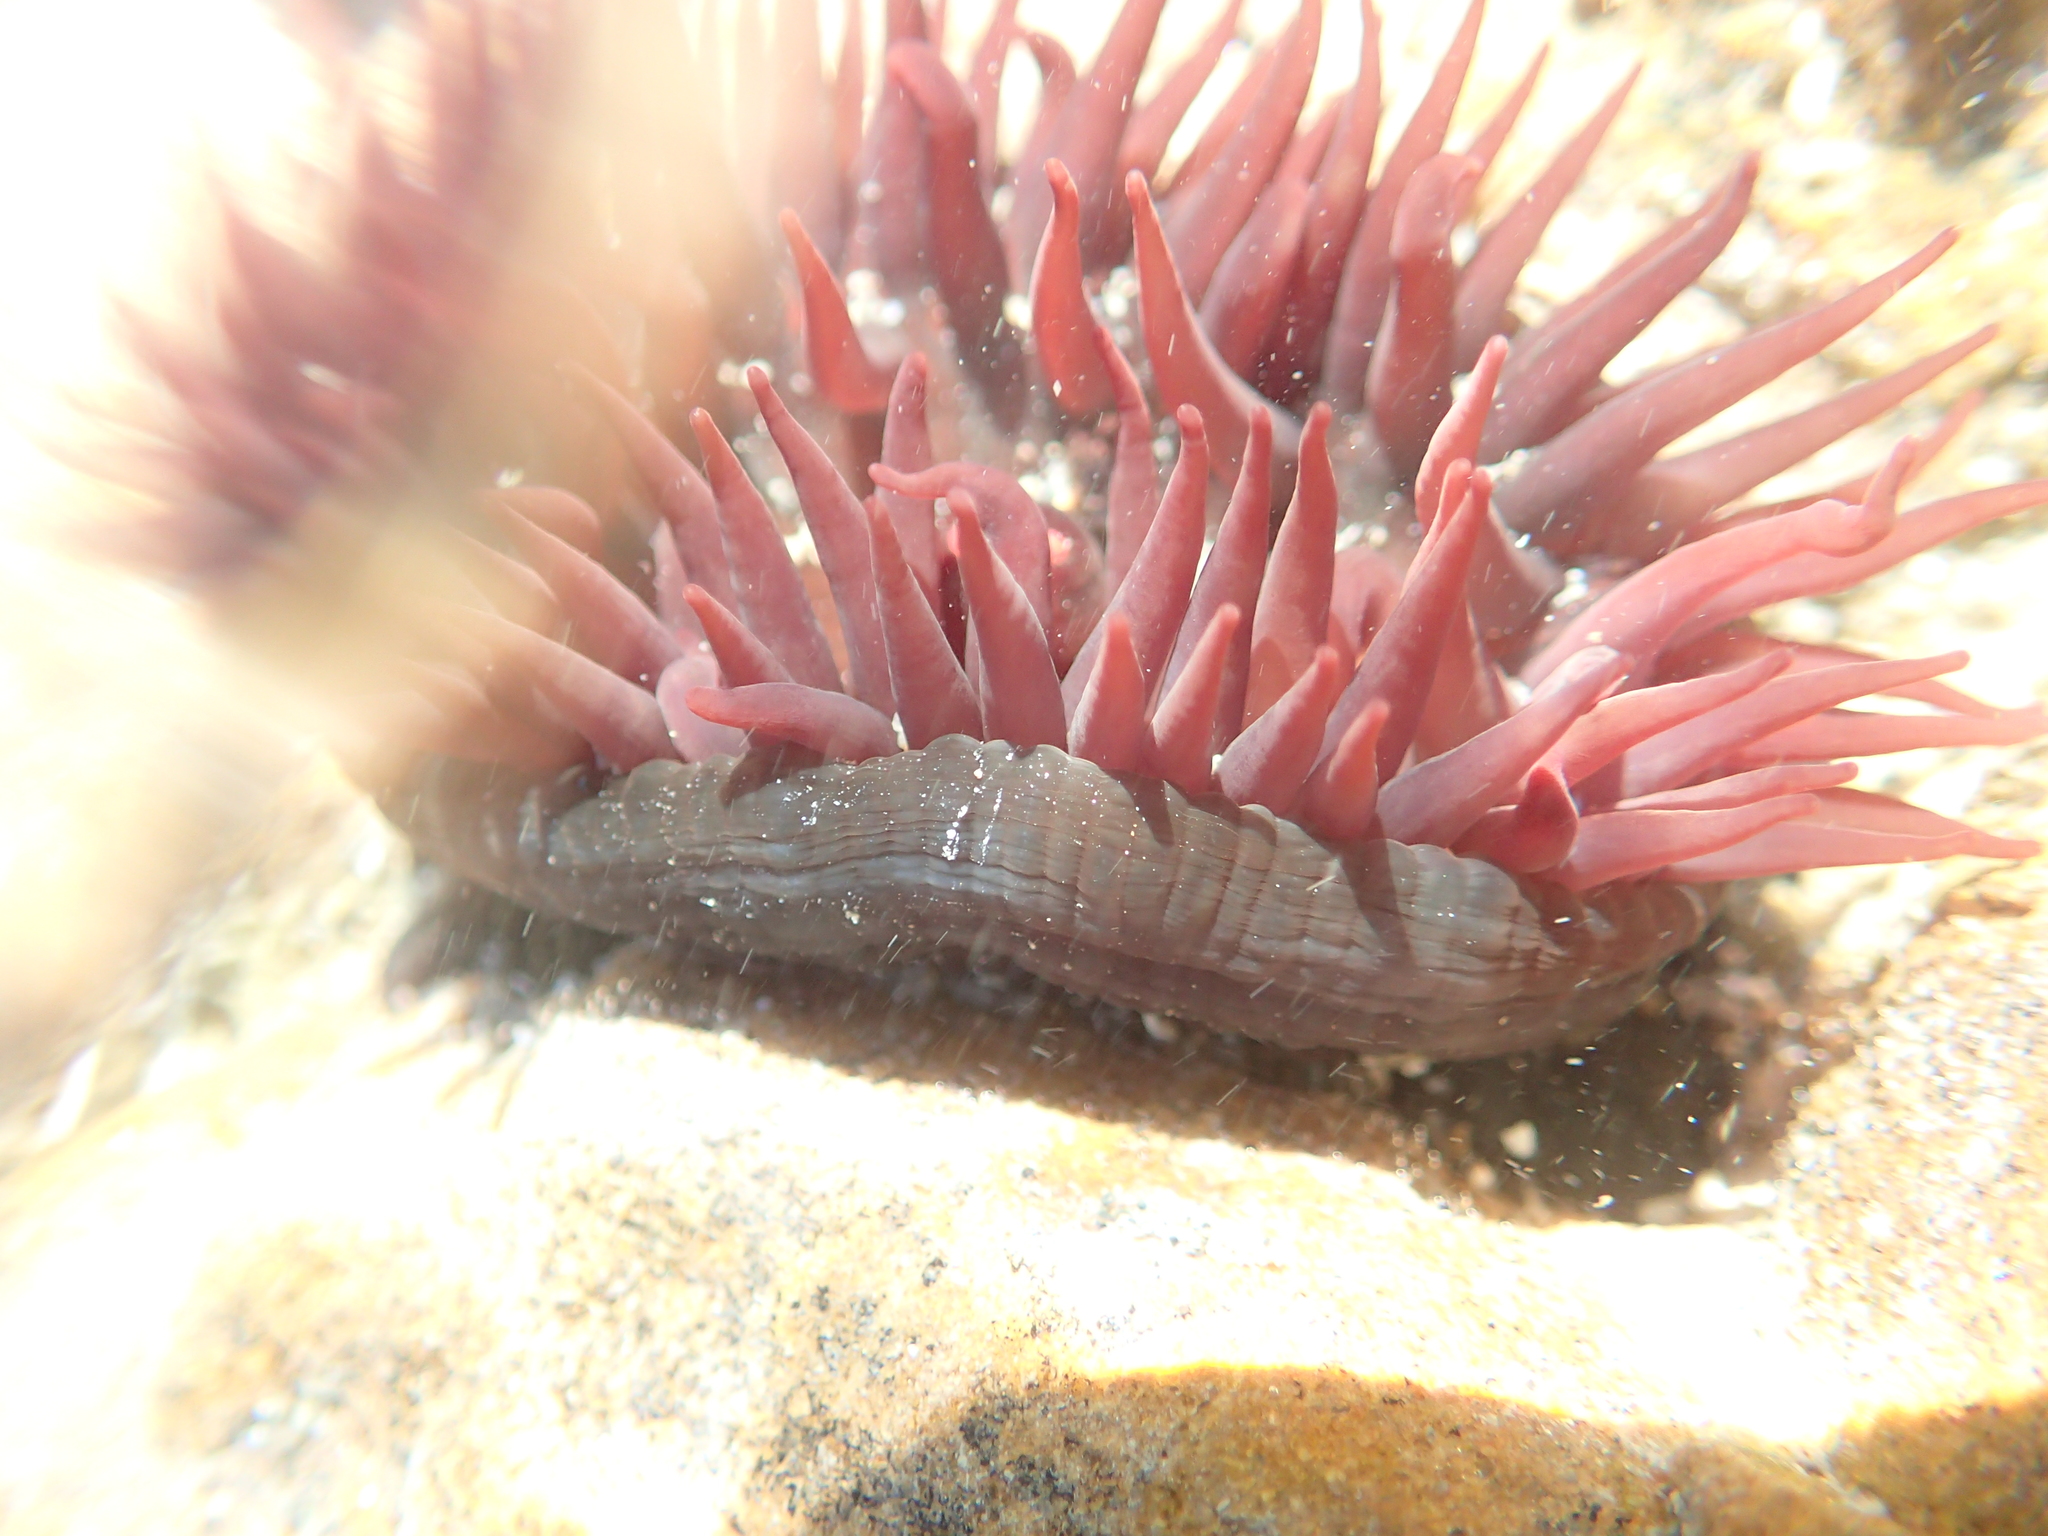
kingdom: Animalia
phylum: Cnidaria
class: Anthozoa
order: Actiniaria
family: Actiniidae
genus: Actinia
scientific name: Actinia tenebrosa
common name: Waratah anemone
